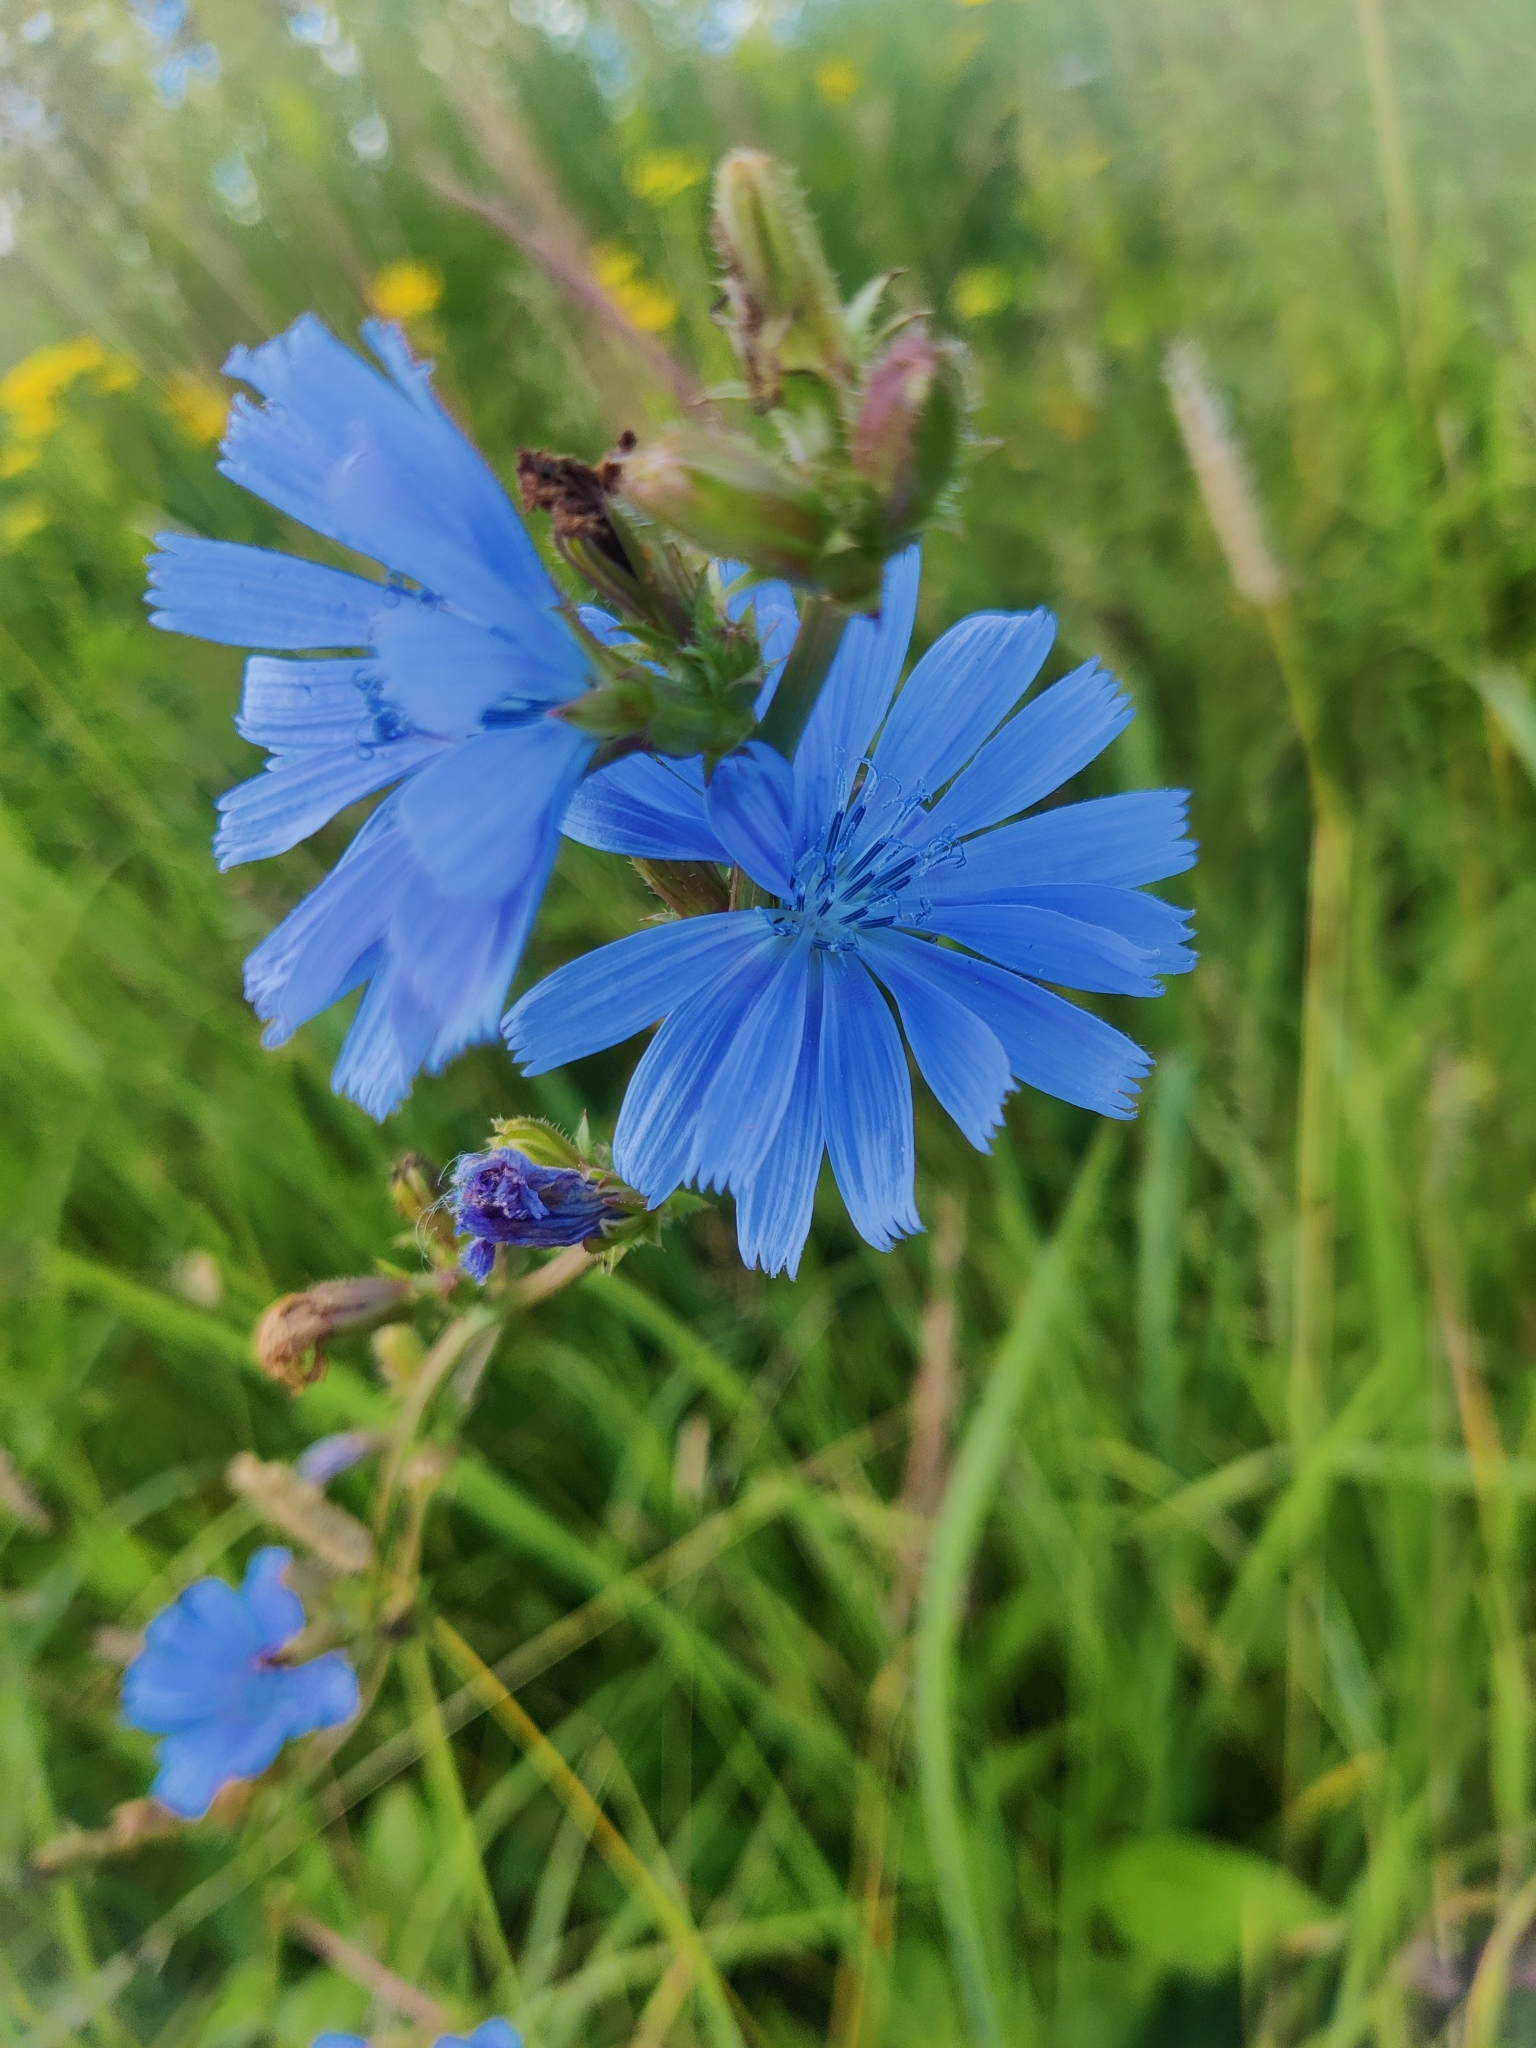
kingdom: Plantae
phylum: Tracheophyta
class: Magnoliopsida
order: Asterales
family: Asteraceae
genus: Cichorium
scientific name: Cichorium intybus
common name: Chicory
